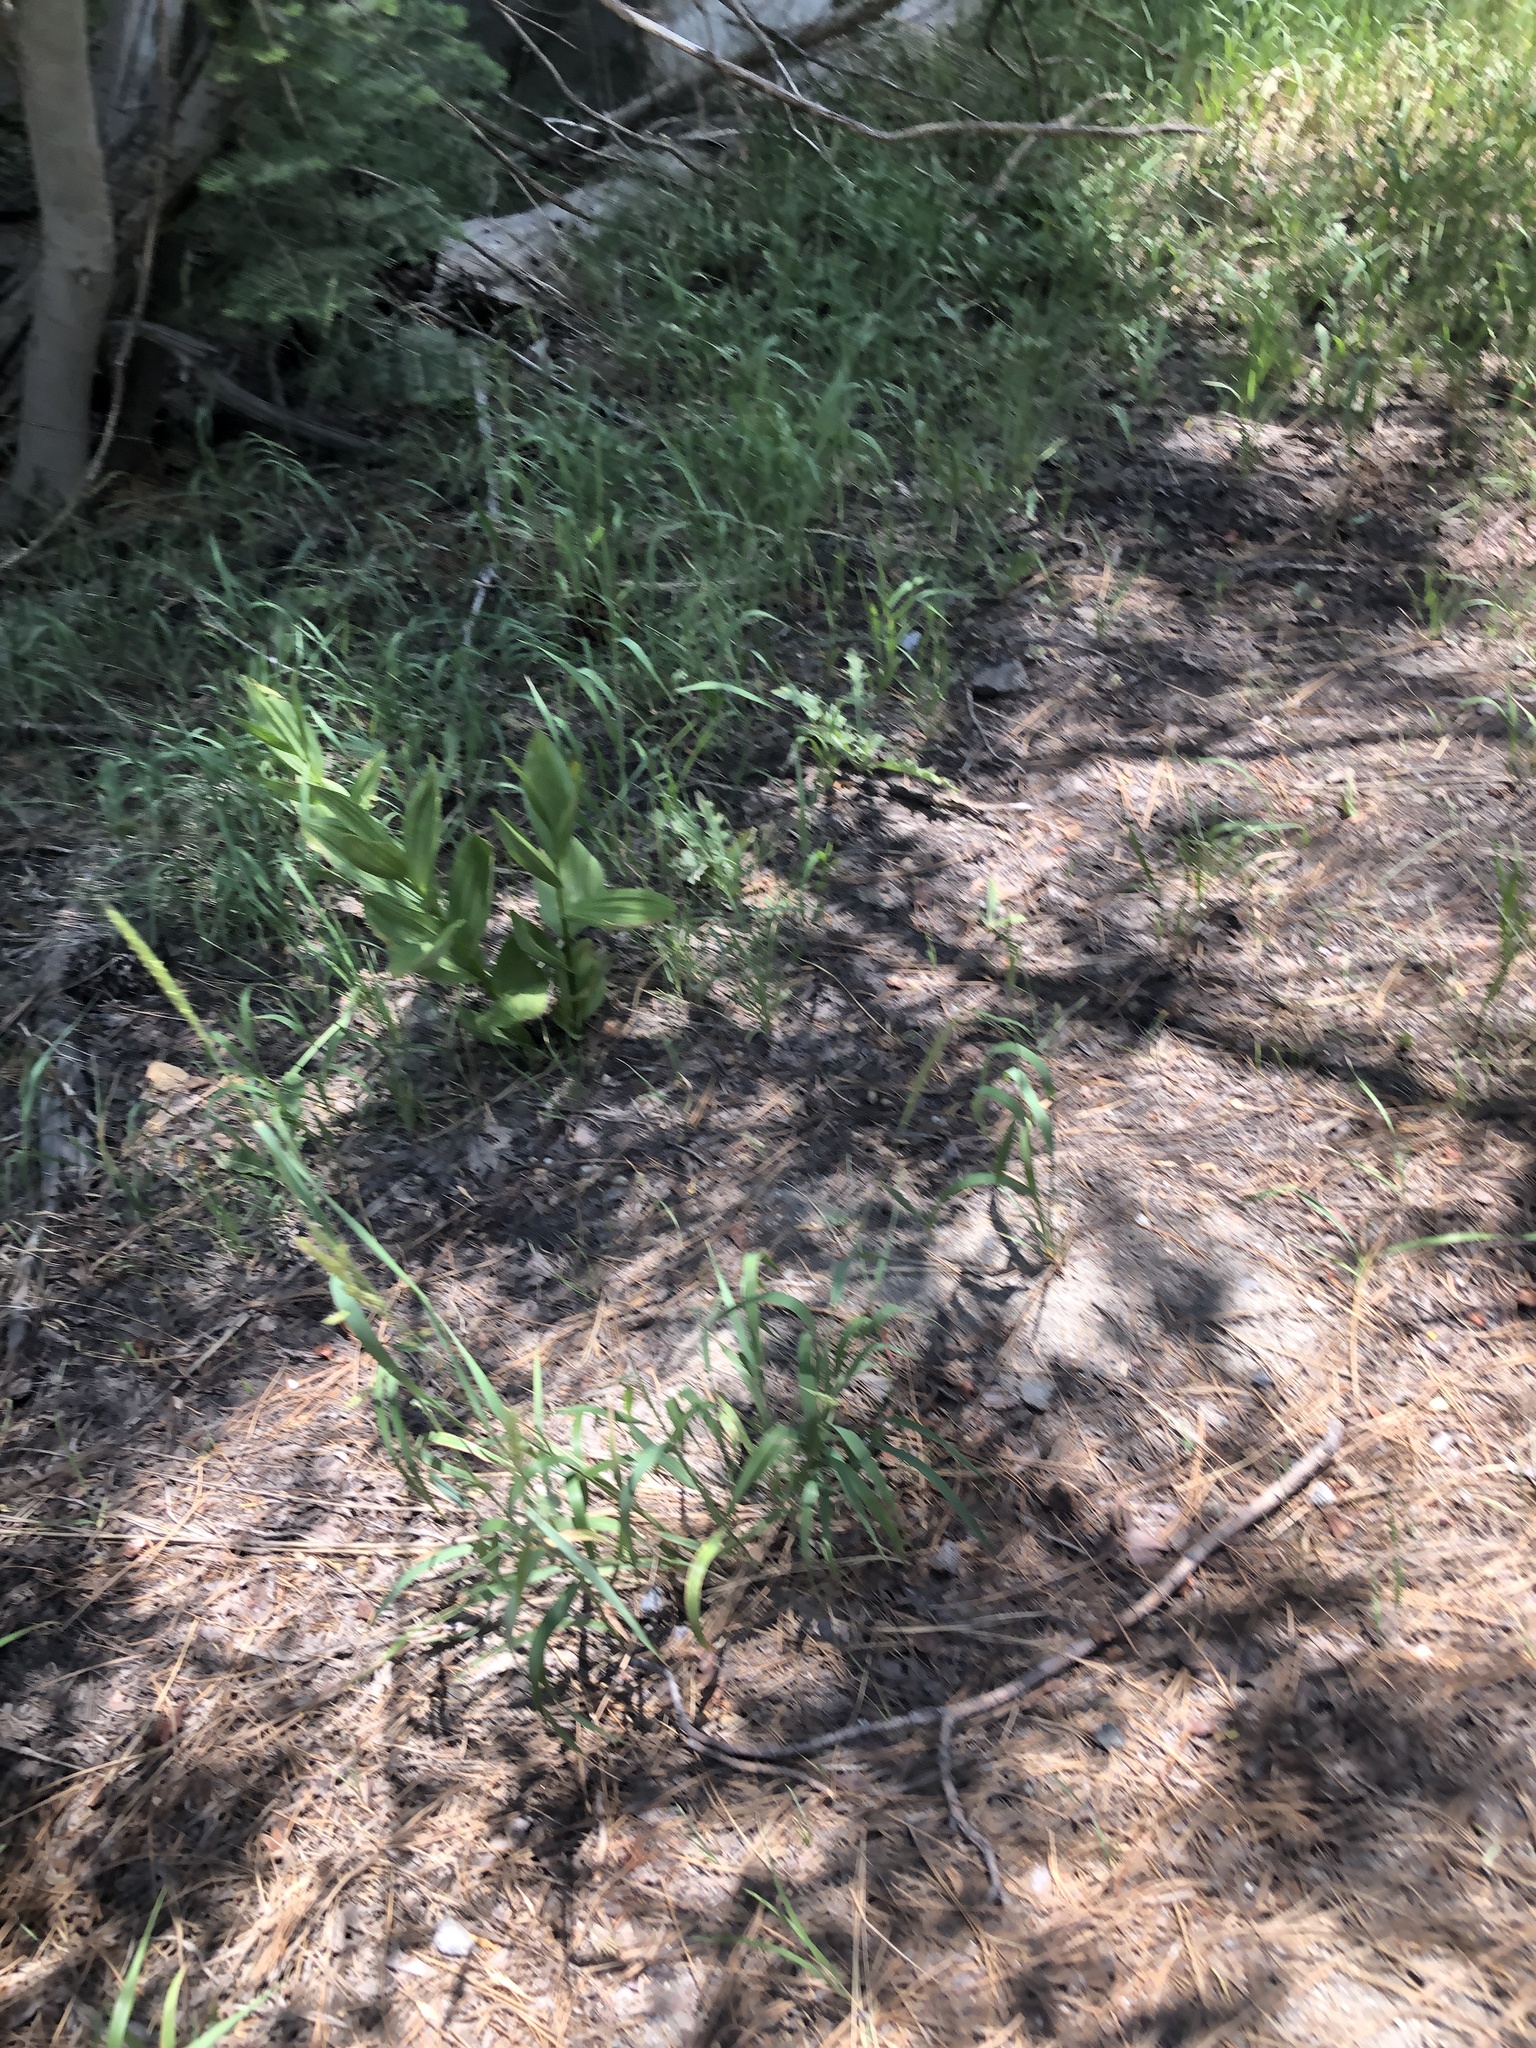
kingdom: Plantae
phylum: Tracheophyta
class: Liliopsida
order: Liliales
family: Melanthiaceae
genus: Veratrum
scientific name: Veratrum californicum
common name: California veratrum
